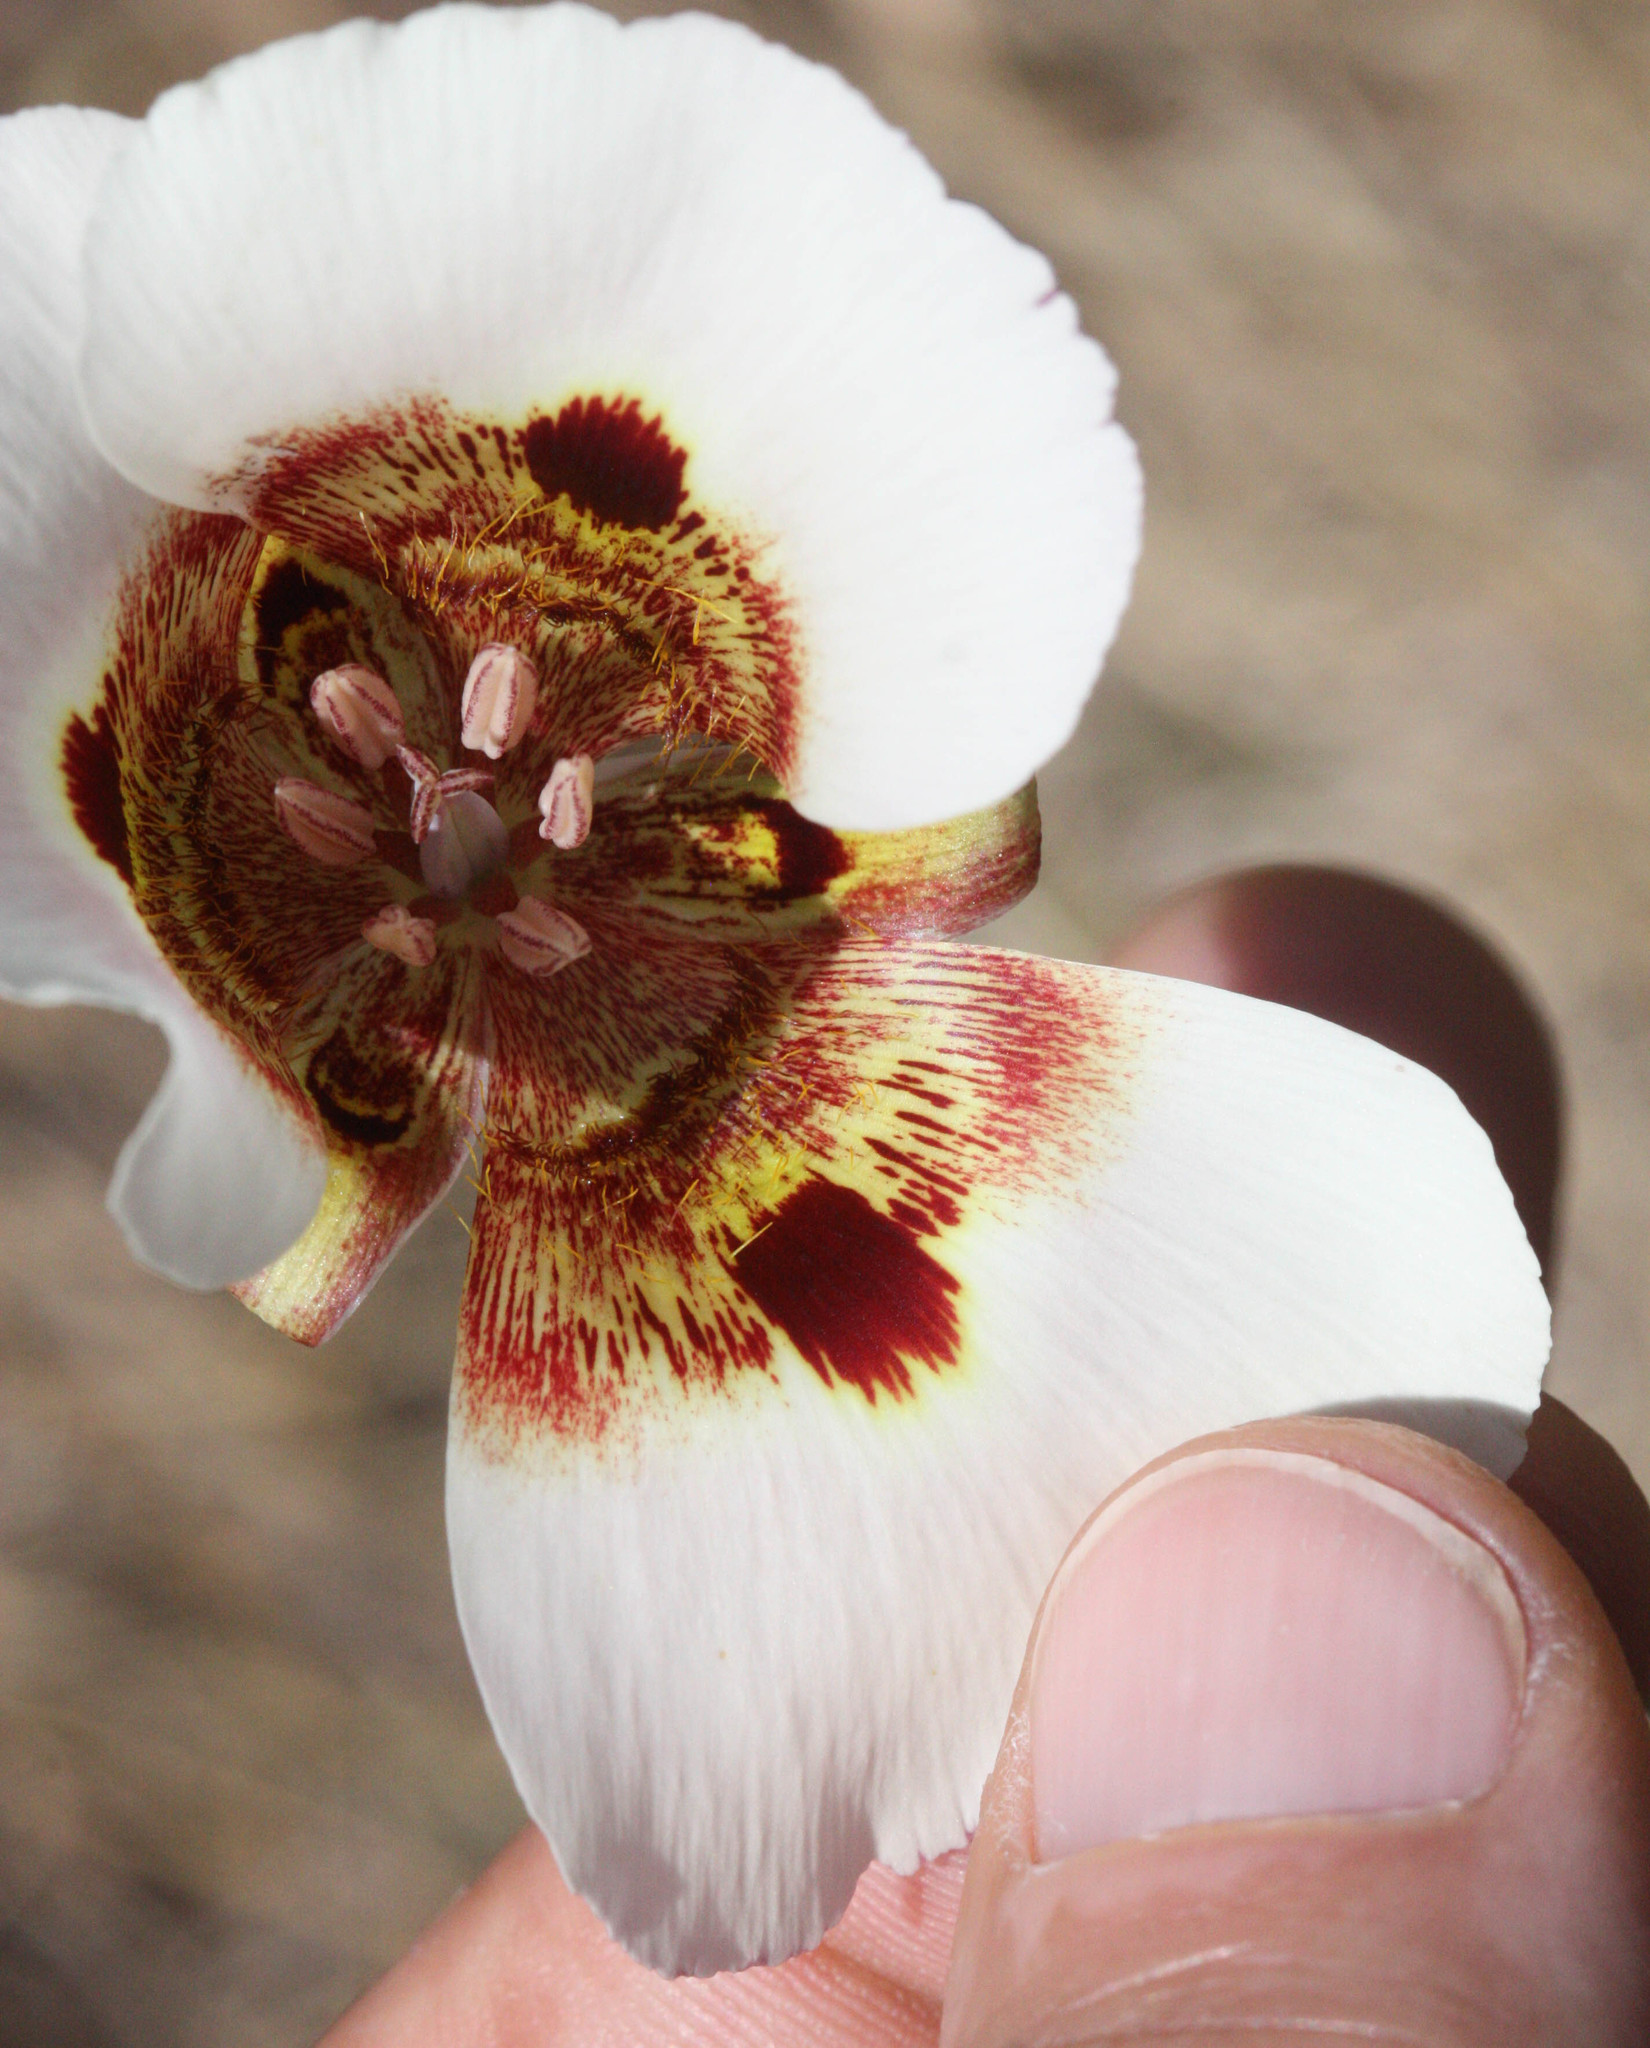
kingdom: Plantae
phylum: Tracheophyta
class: Liliopsida
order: Liliales
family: Liliaceae
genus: Calochortus
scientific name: Calochortus vestae
